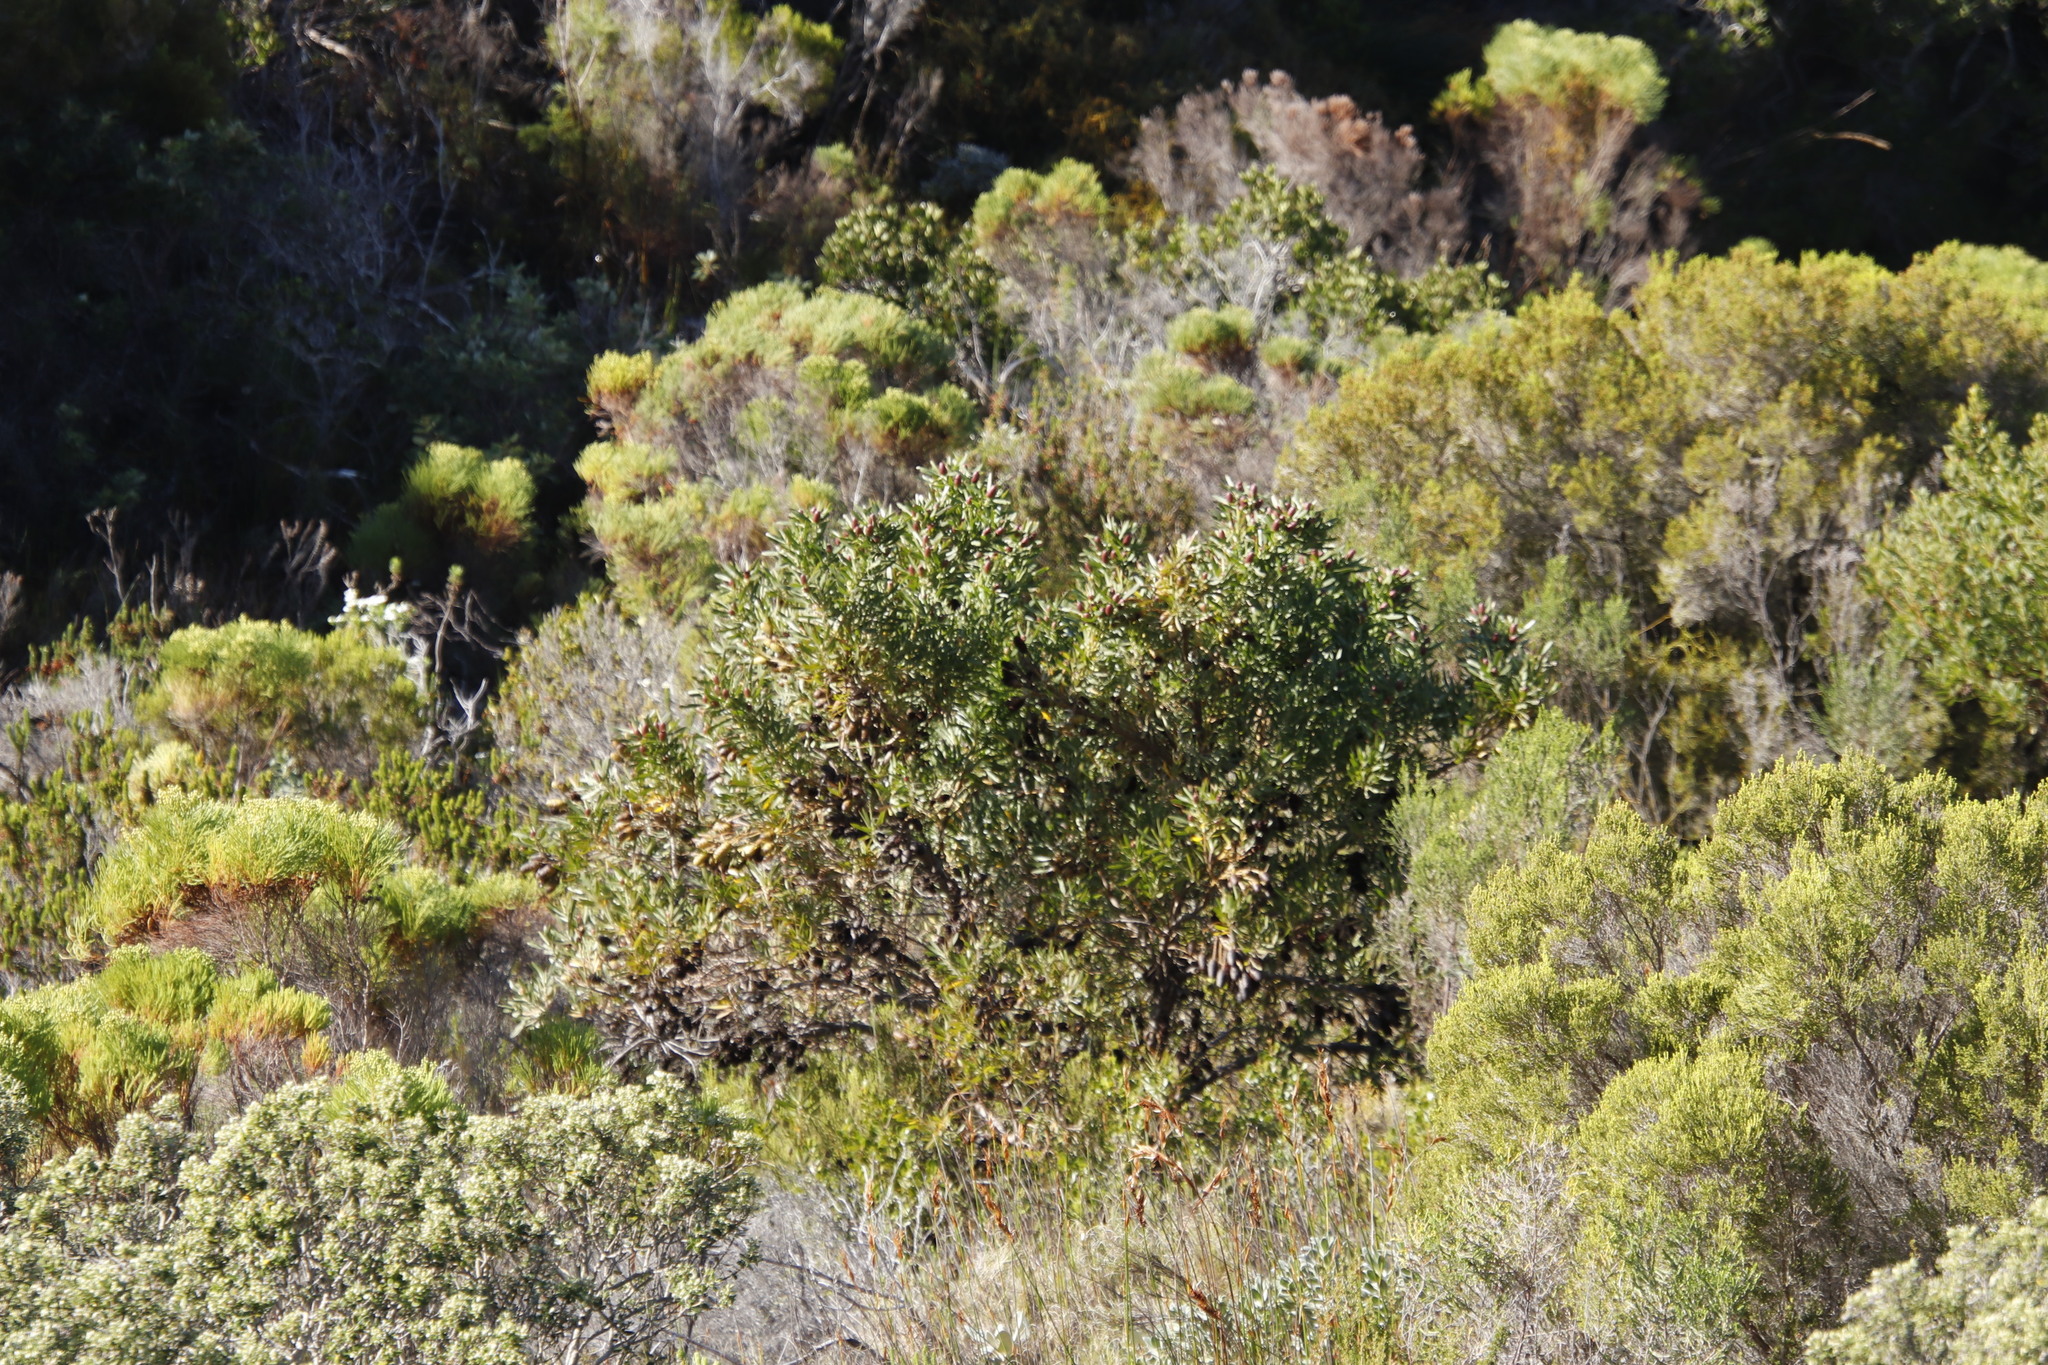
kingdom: Plantae
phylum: Tracheophyta
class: Magnoliopsida
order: Proteales
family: Proteaceae
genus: Leucadendron
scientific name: Leucadendron macowanii
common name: Acacia-leaf conebush
